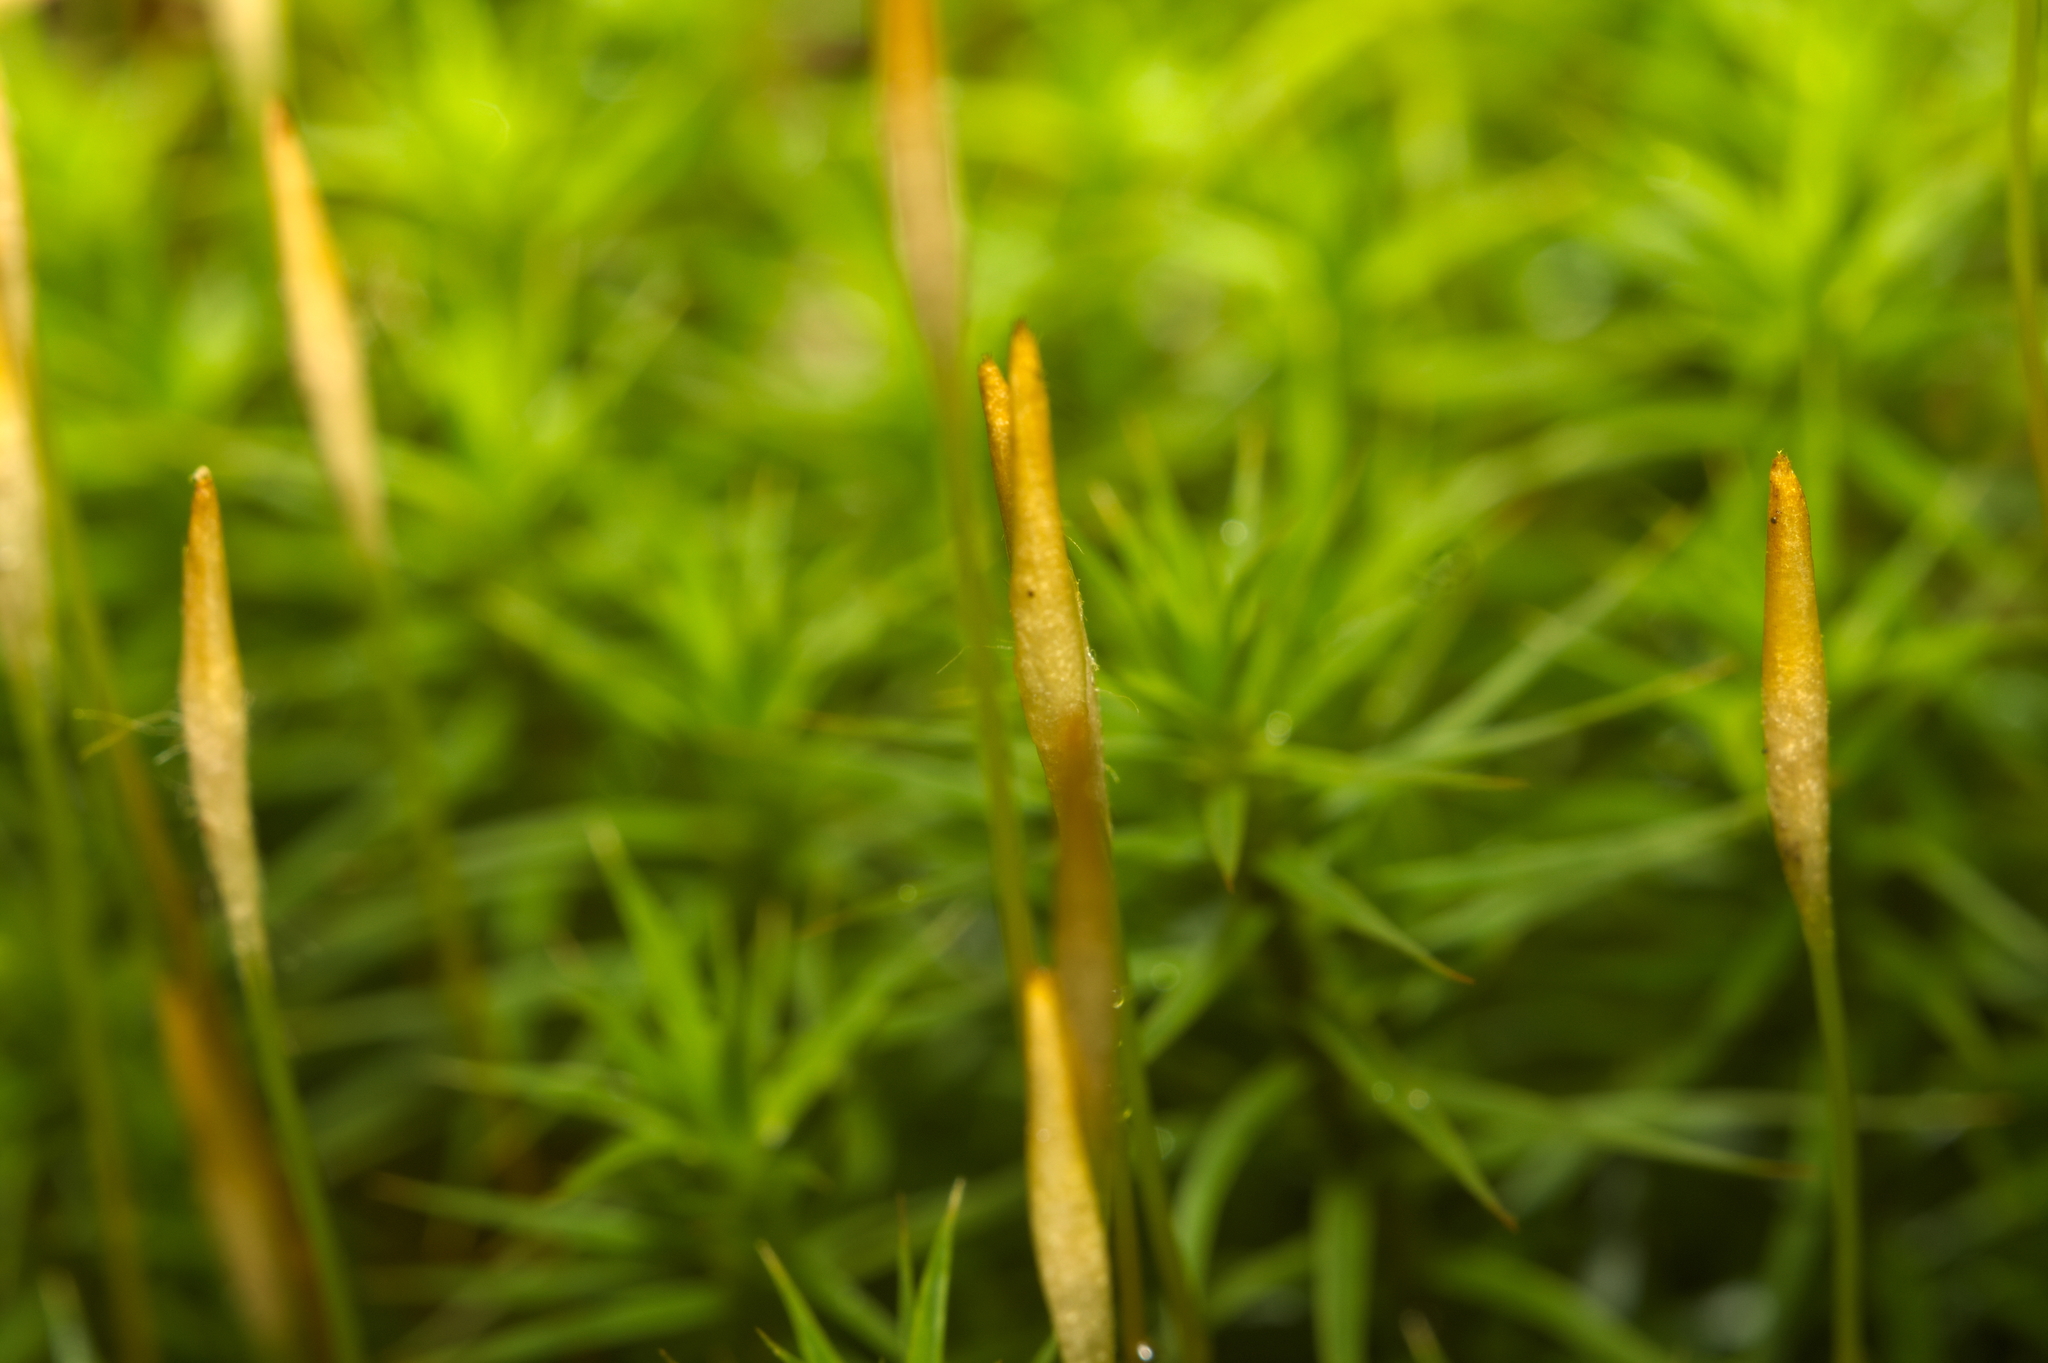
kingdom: Plantae
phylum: Bryophyta
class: Polytrichopsida
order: Polytrichales
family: Polytrichaceae
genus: Polytrichum
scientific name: Polytrichum formosum
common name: Bank haircap moss
